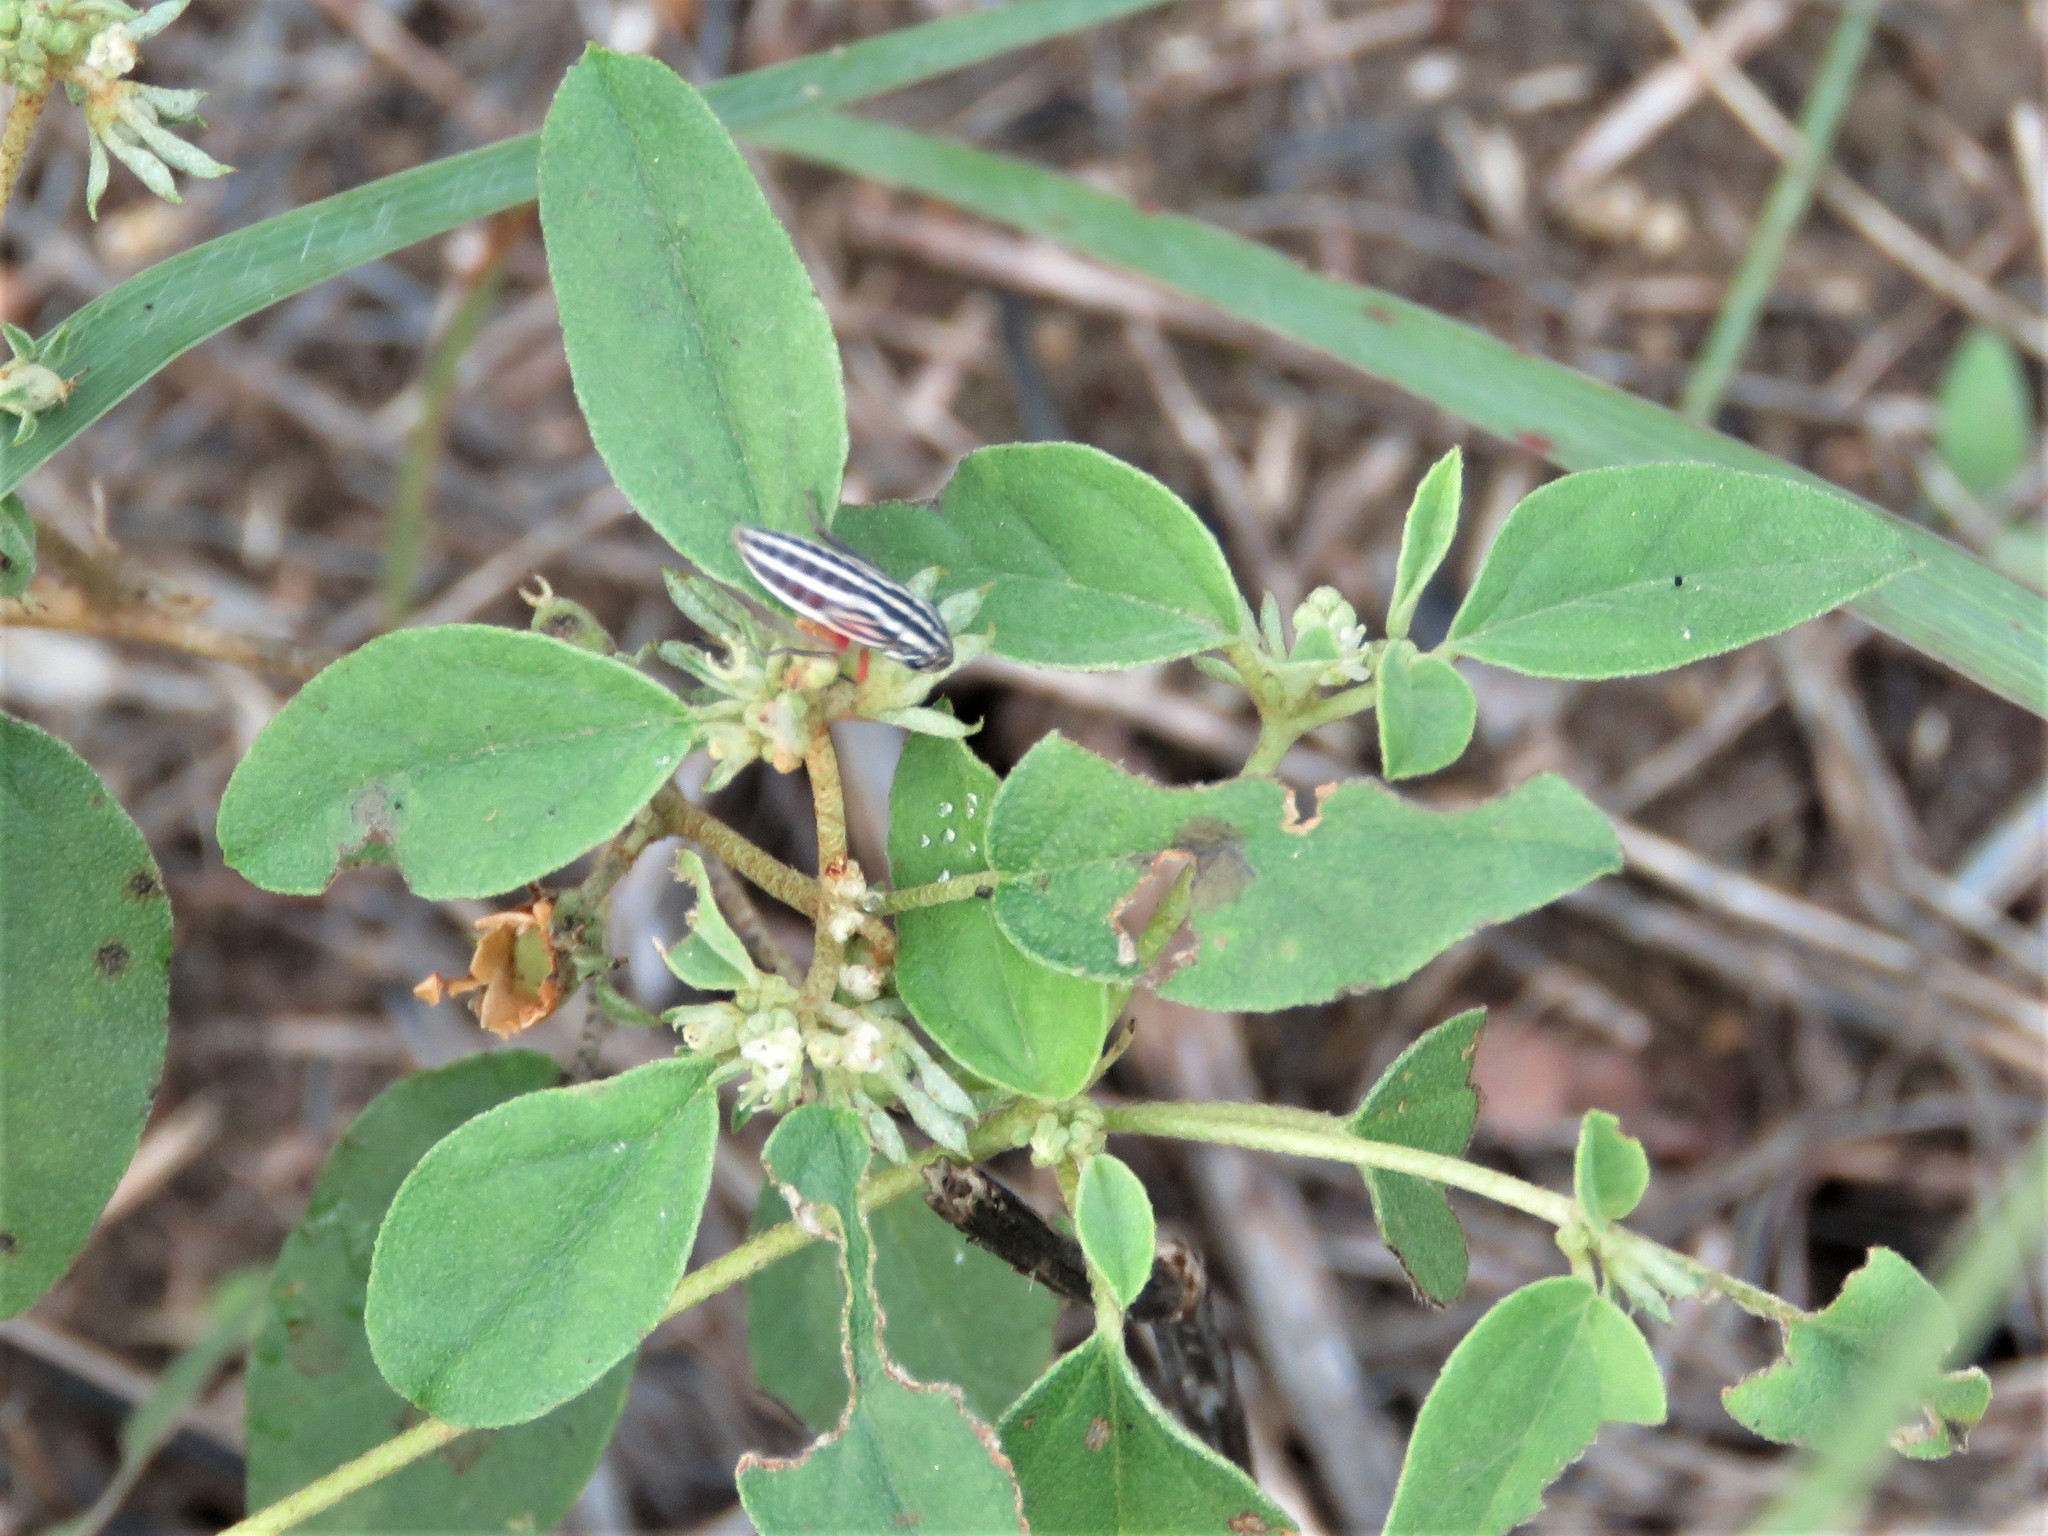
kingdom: Animalia
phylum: Arthropoda
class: Insecta
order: Hemiptera
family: Cicadellidae
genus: Cuerna
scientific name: Cuerna costalis
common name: Lateral-lined sharpshooter
